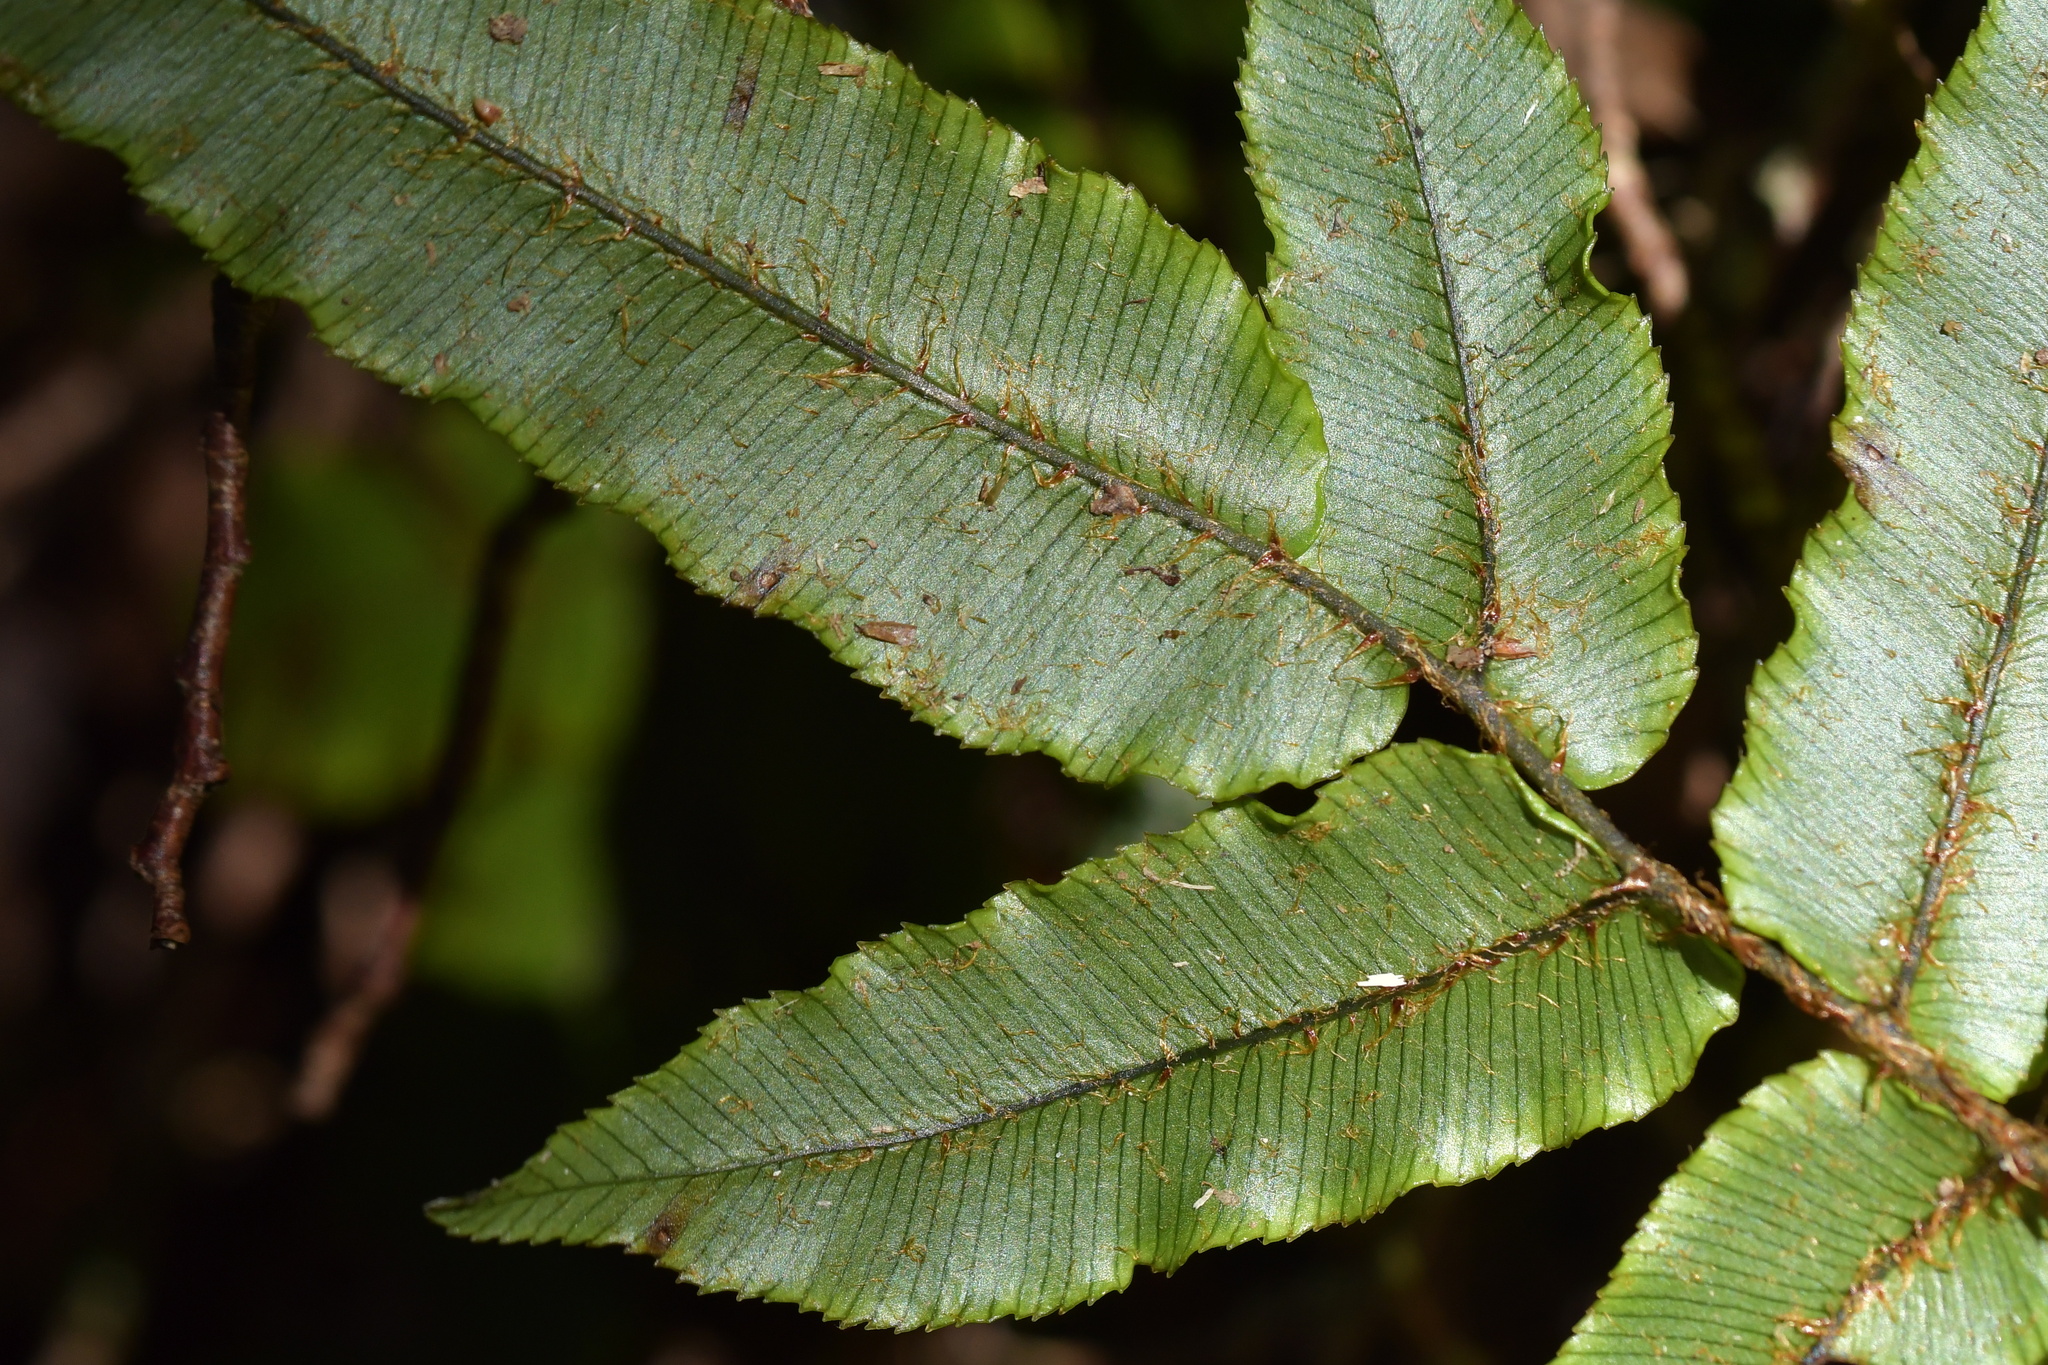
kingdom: Plantae
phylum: Tracheophyta
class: Polypodiopsida
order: Polypodiales
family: Blechnaceae
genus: Parablechnum
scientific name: Parablechnum procerum
